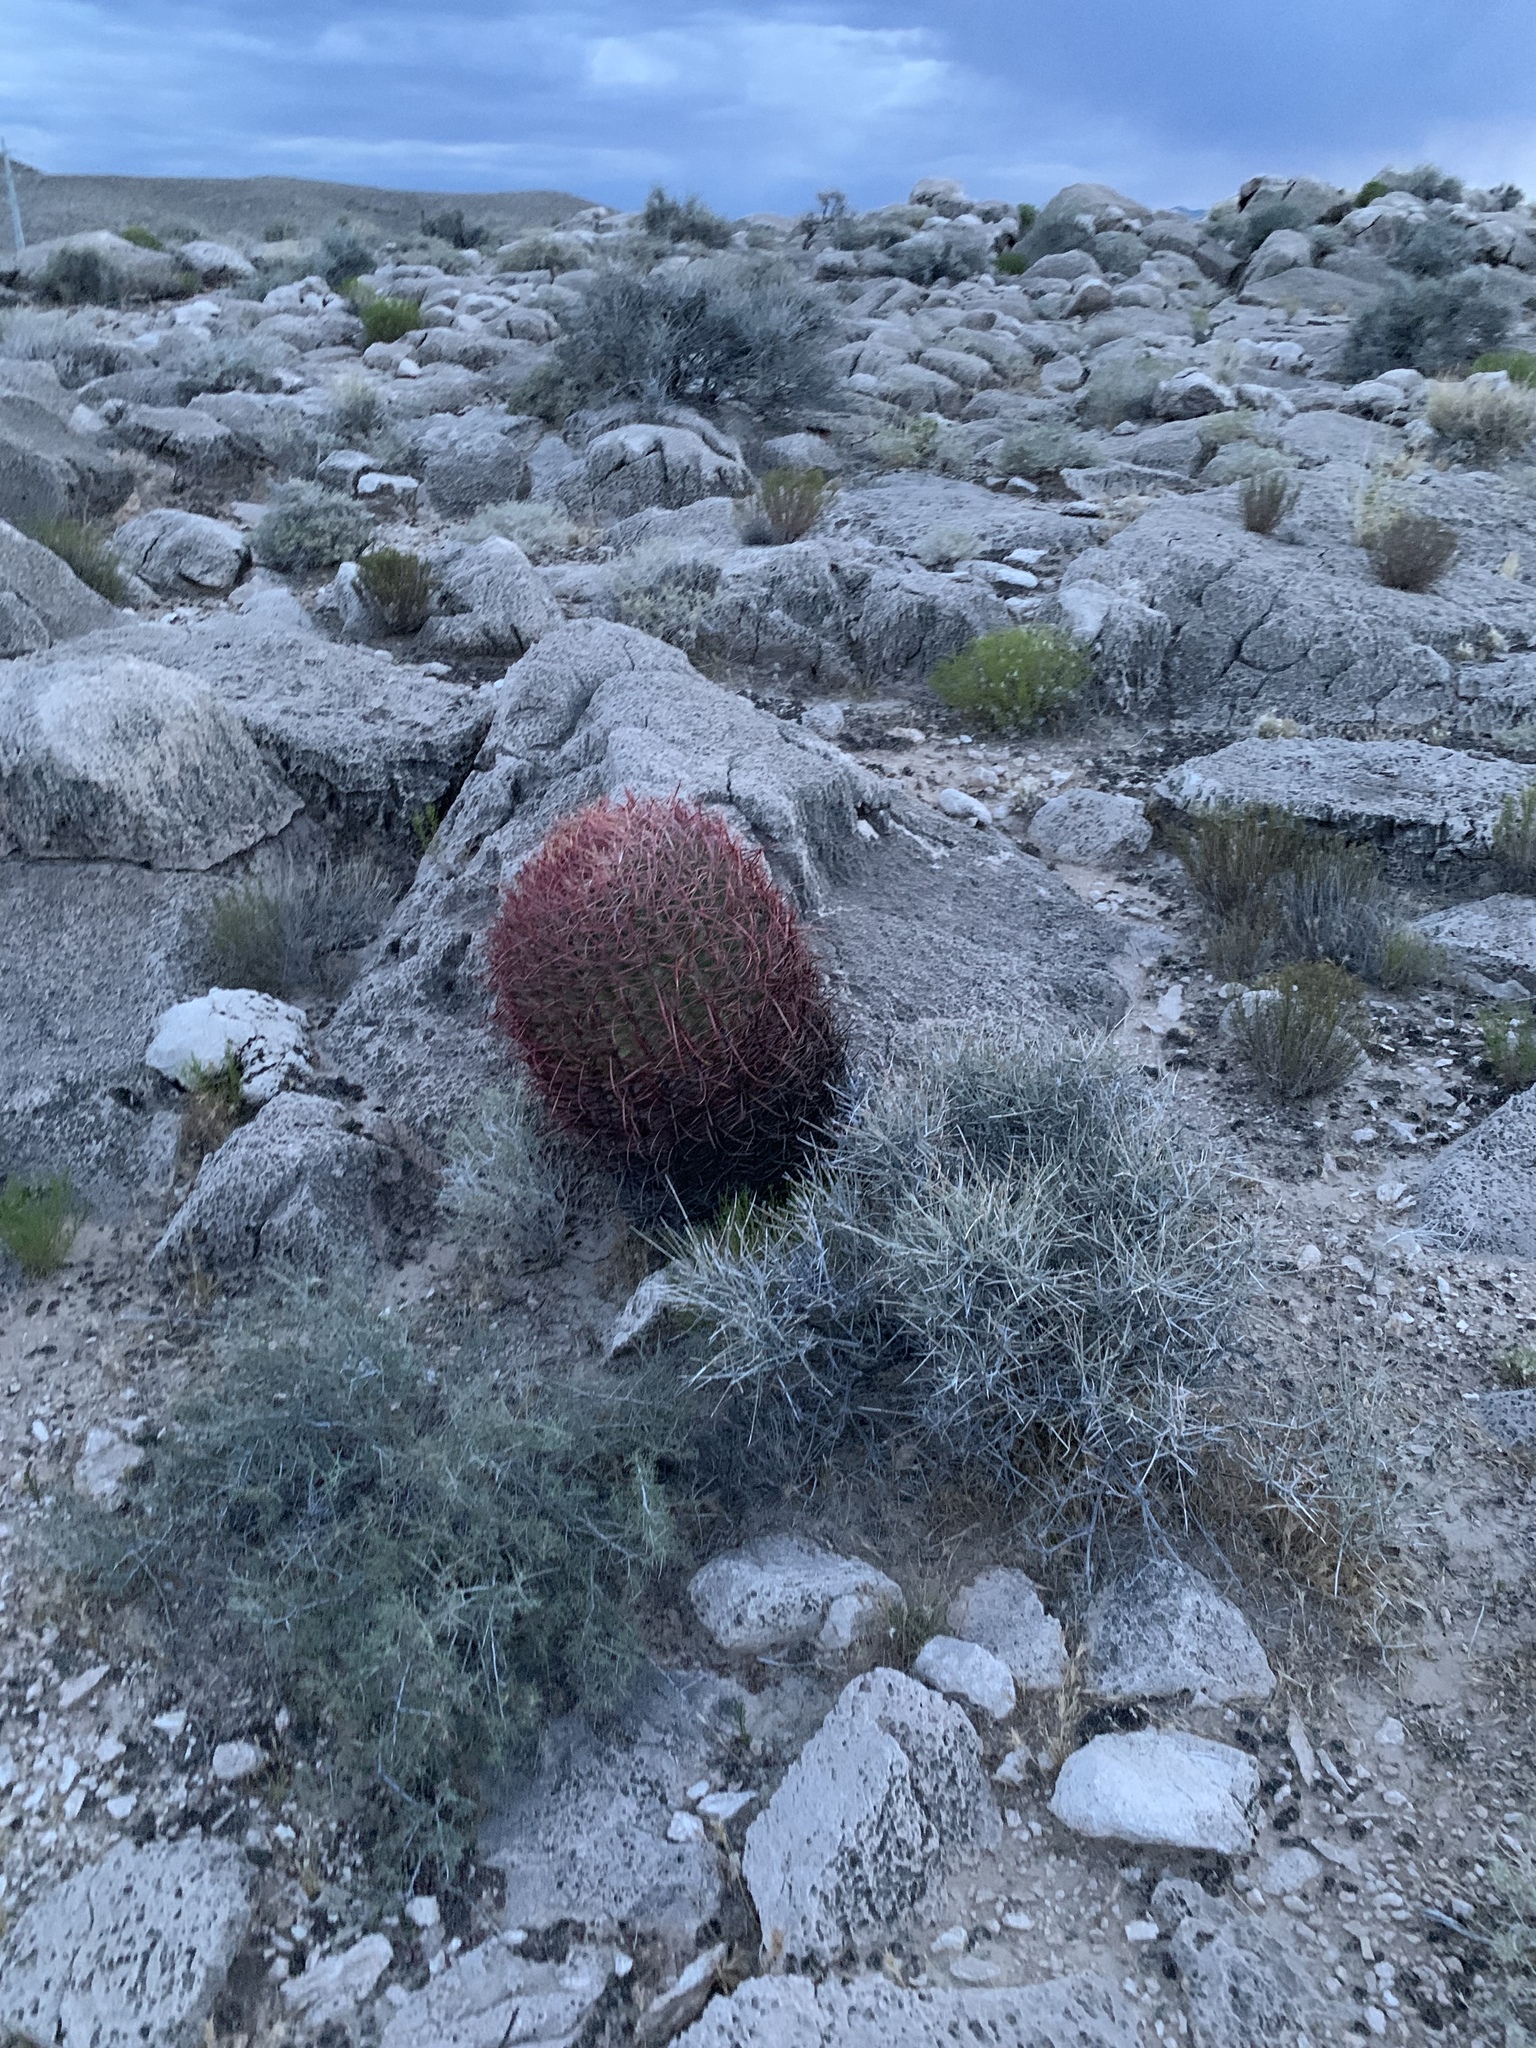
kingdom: Plantae
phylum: Tracheophyta
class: Magnoliopsida
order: Caryophyllales
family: Cactaceae
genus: Ferocactus
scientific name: Ferocactus cylindraceus
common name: California barrel cactus
